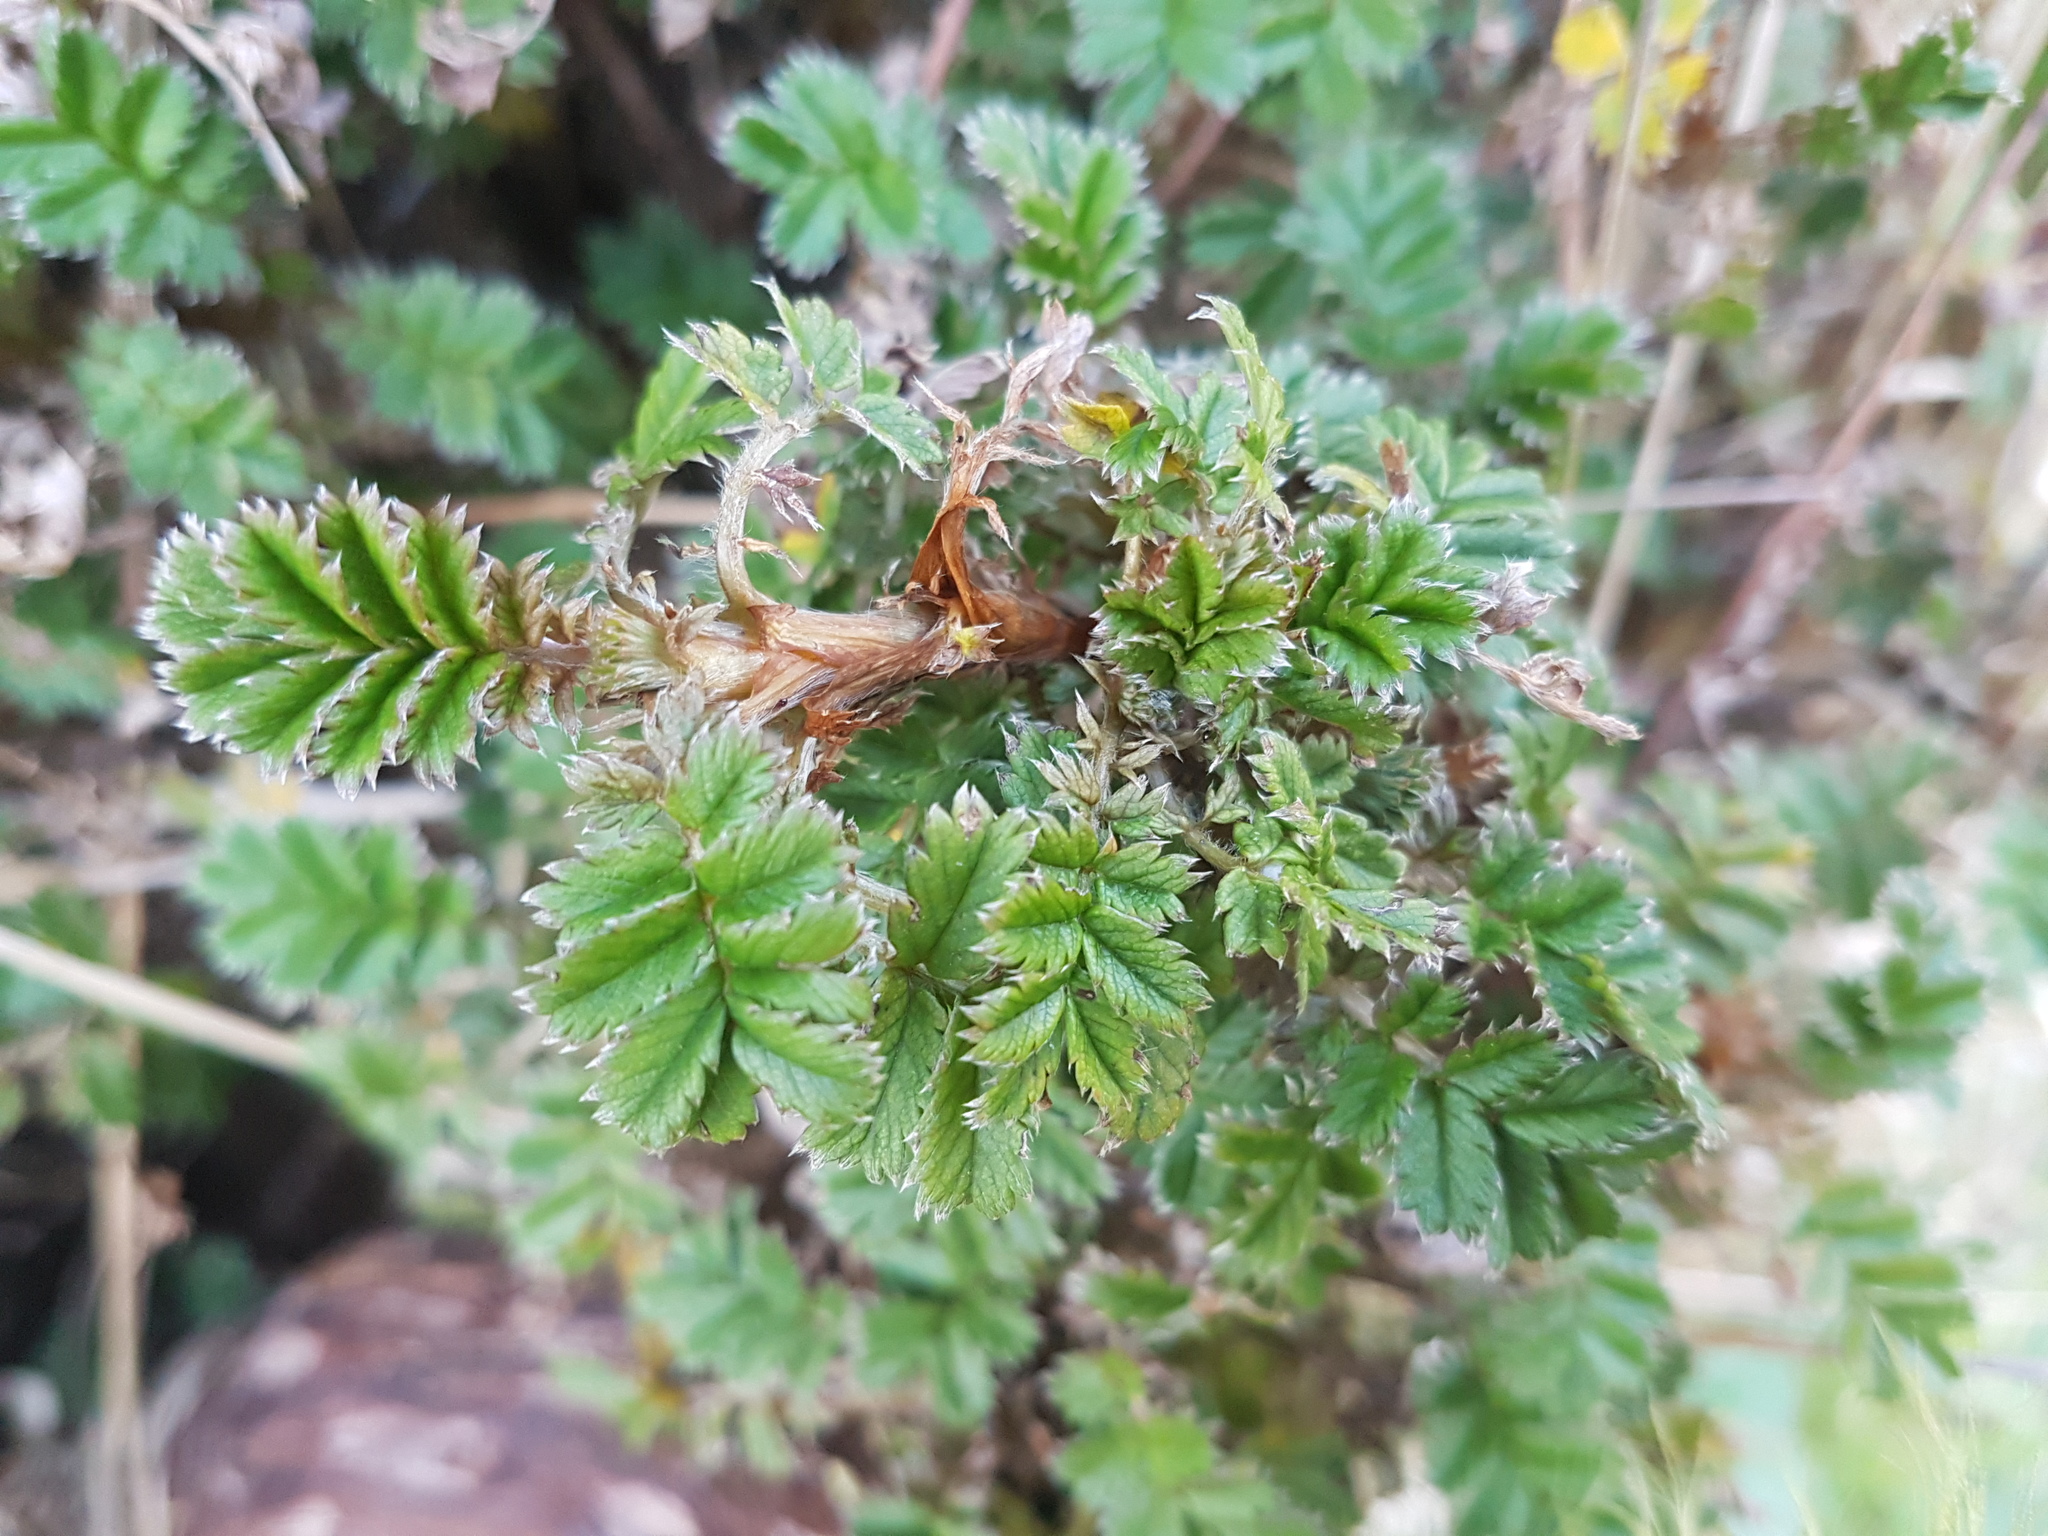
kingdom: Plantae
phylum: Tracheophyta
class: Magnoliopsida
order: Rosales
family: Rosaceae
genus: Acaena
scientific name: Acaena anserinifolia
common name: Bronze pirri-pirri-bur
